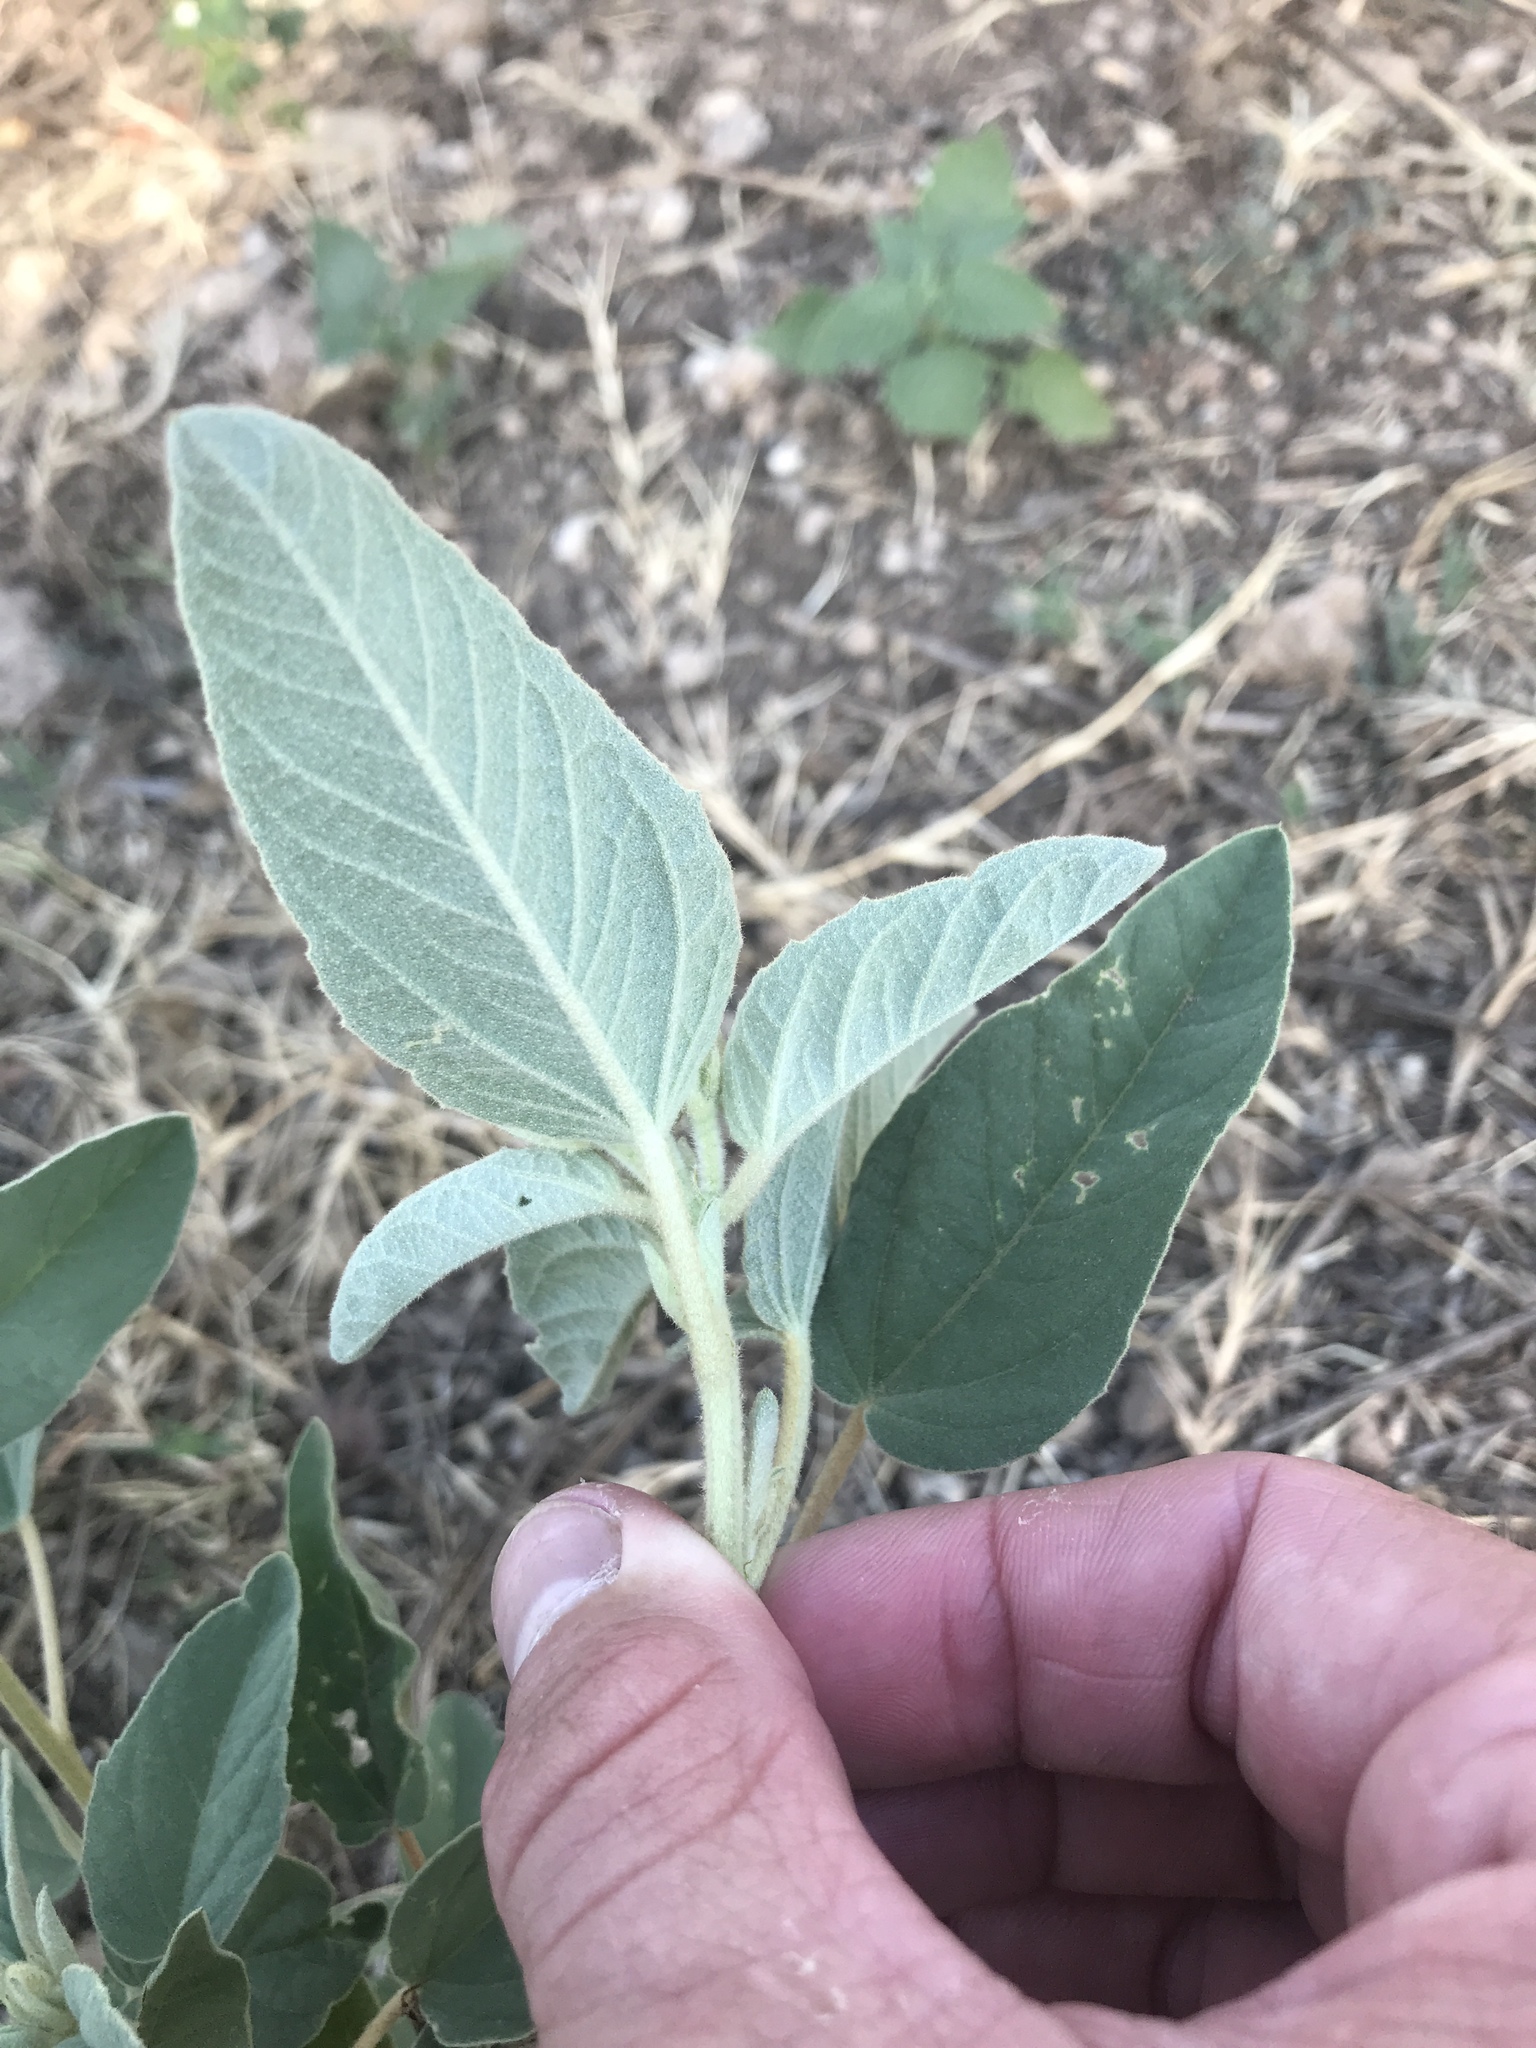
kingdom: Plantae
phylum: Tracheophyta
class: Magnoliopsida
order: Malpighiales
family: Euphorbiaceae
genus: Croton
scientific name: Croton lindheimeri
